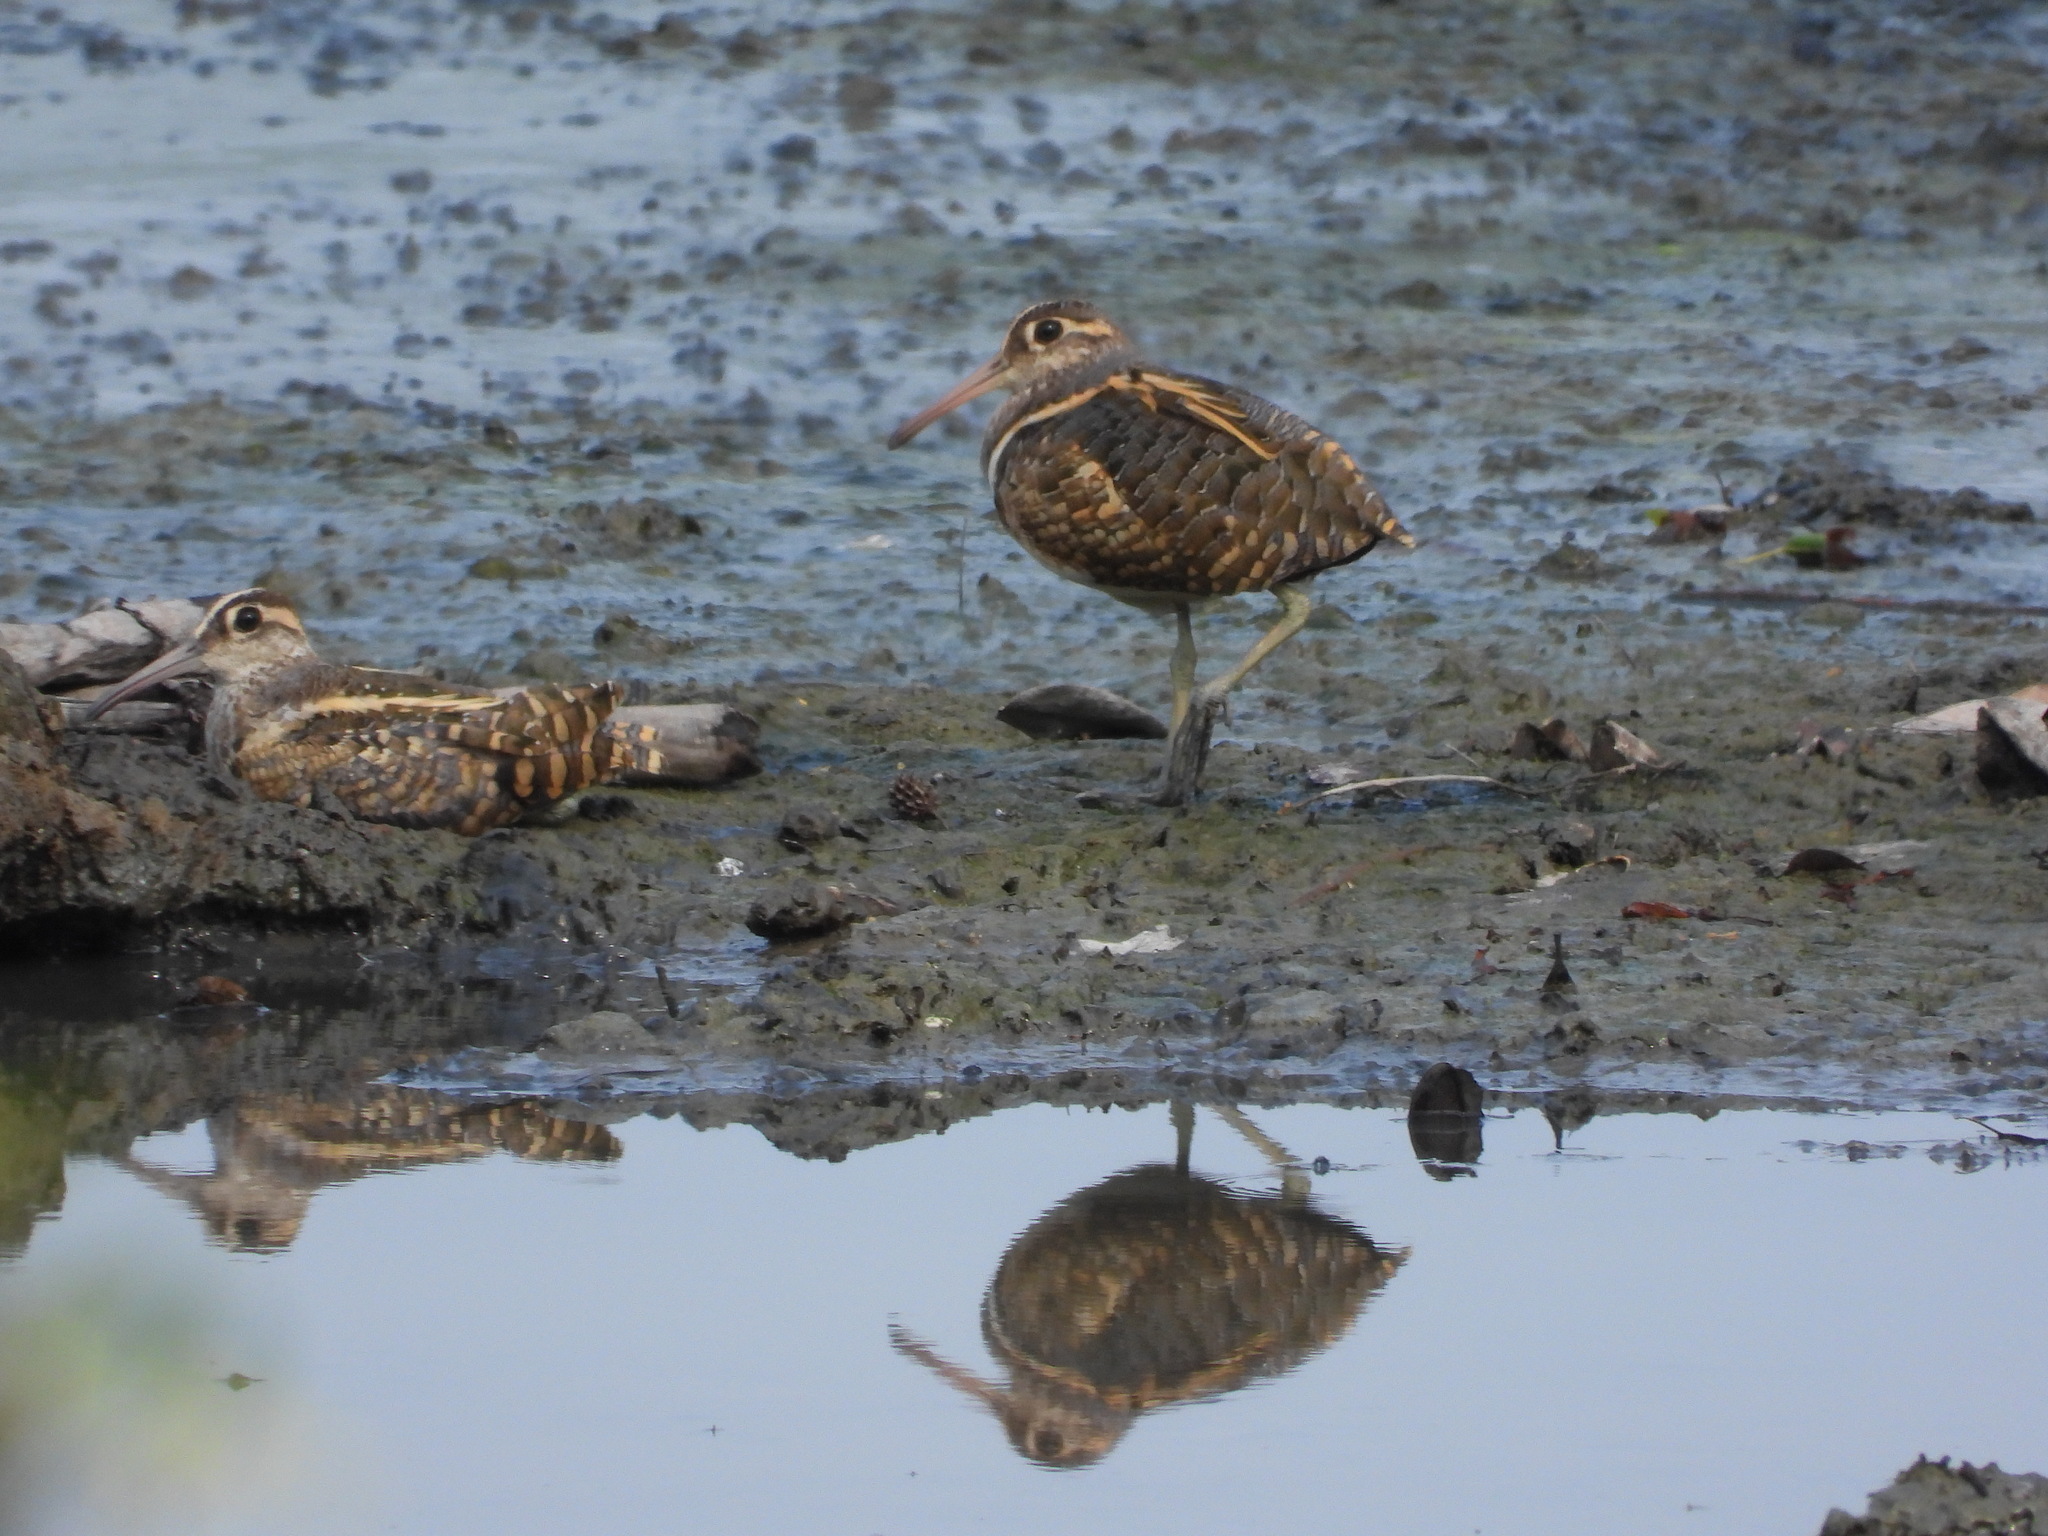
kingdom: Animalia
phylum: Chordata
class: Aves
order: Charadriiformes
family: Rostratulidae
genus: Rostratula
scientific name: Rostratula benghalensis
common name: Greater painted-snipe
